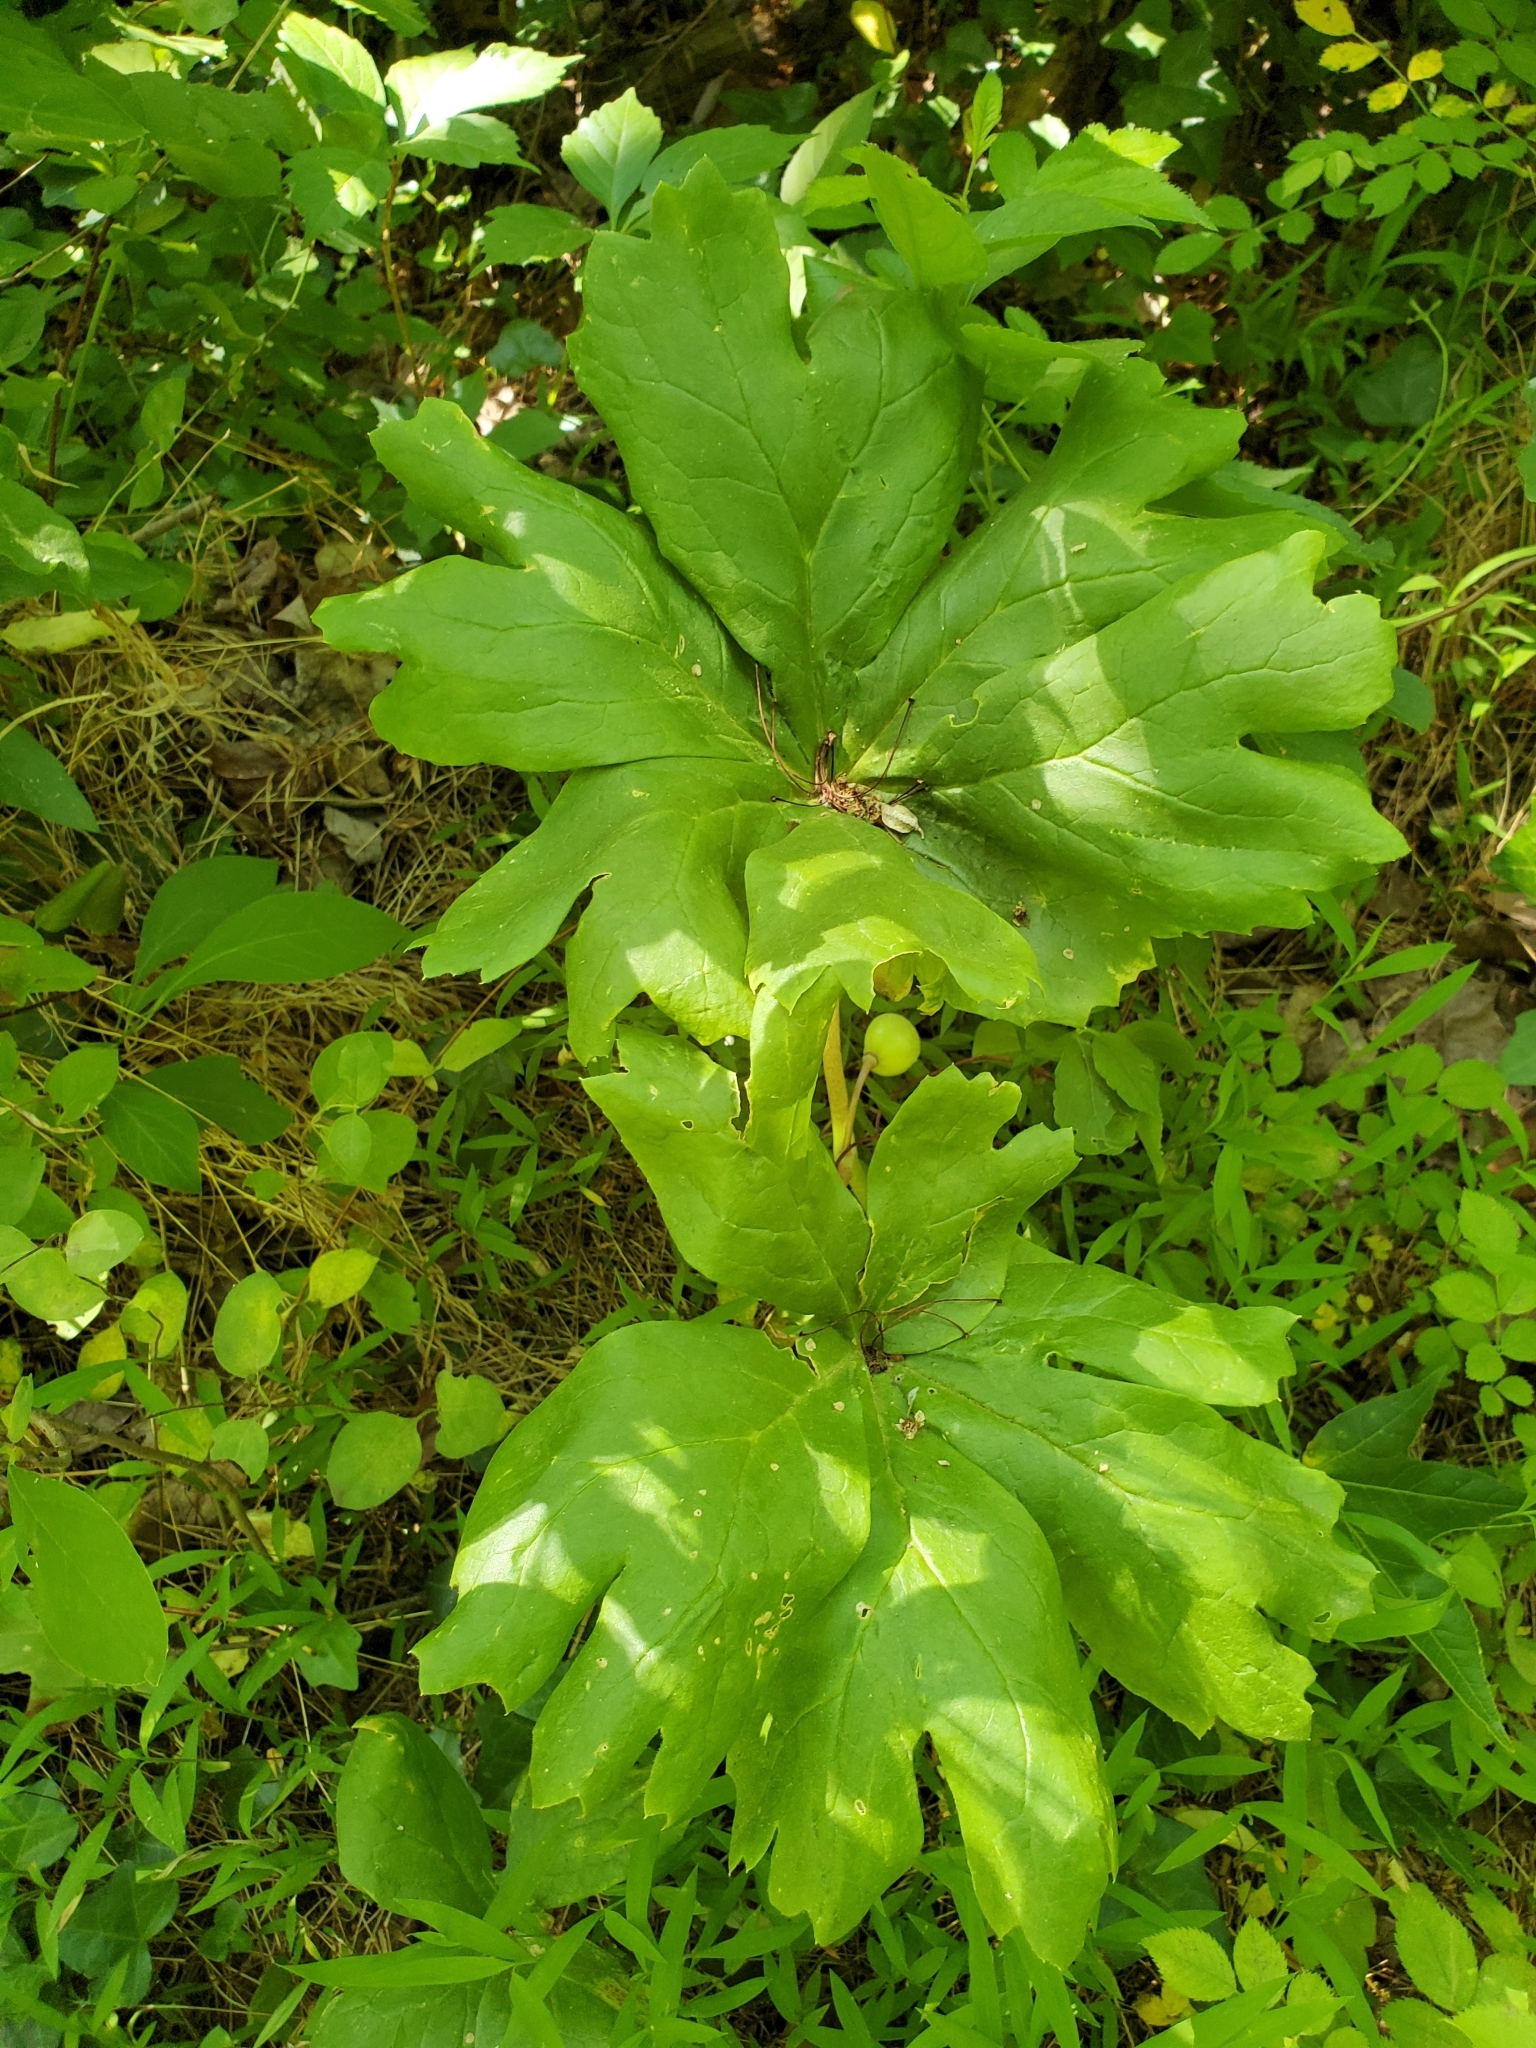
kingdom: Plantae
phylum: Tracheophyta
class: Magnoliopsida
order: Ranunculales
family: Berberidaceae
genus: Podophyllum
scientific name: Podophyllum peltatum
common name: Wild mandrake
